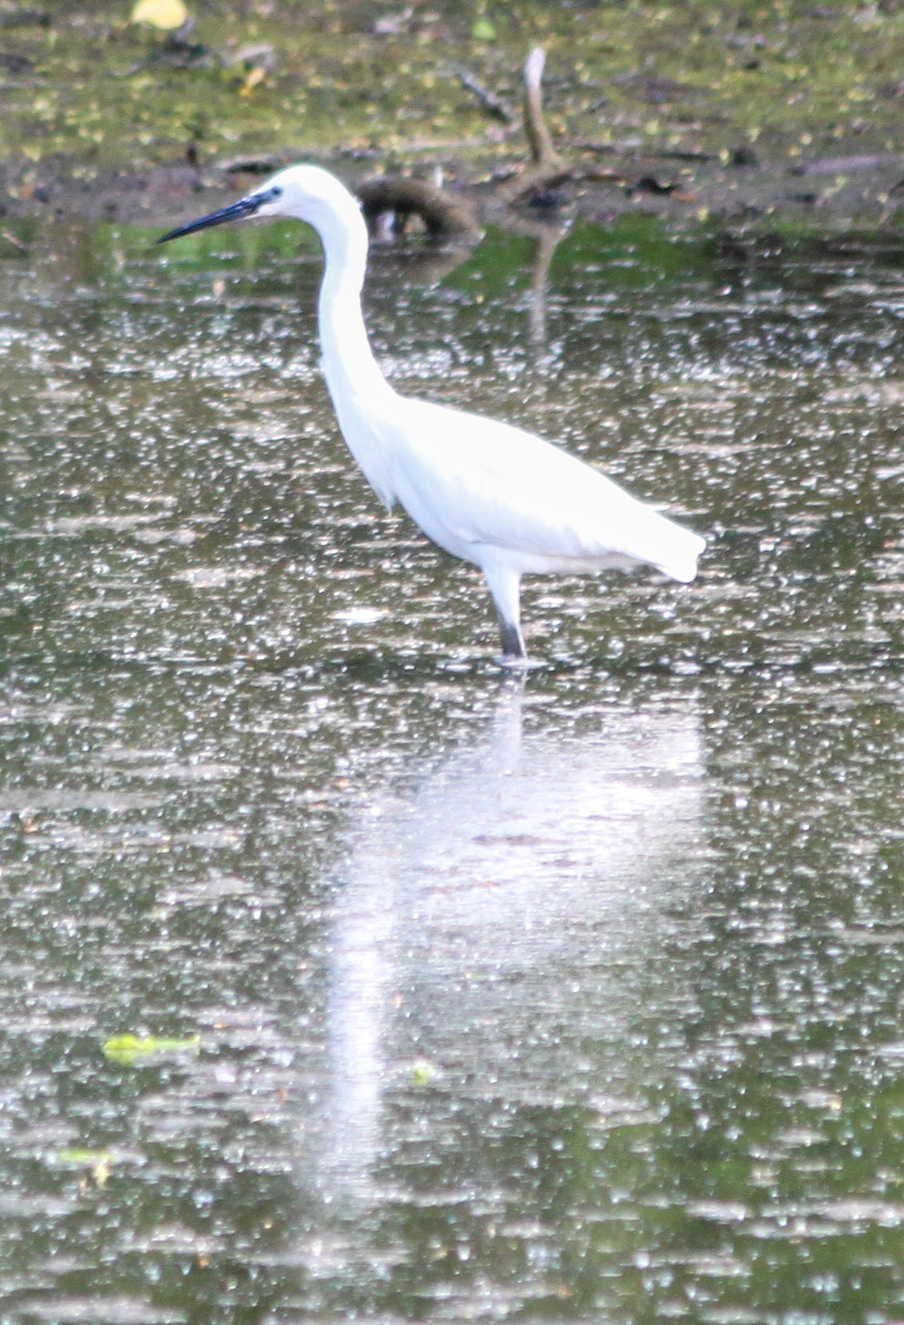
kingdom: Animalia
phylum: Chordata
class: Aves
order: Pelecaniformes
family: Ardeidae
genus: Egretta
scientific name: Egretta garzetta
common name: Little egret
